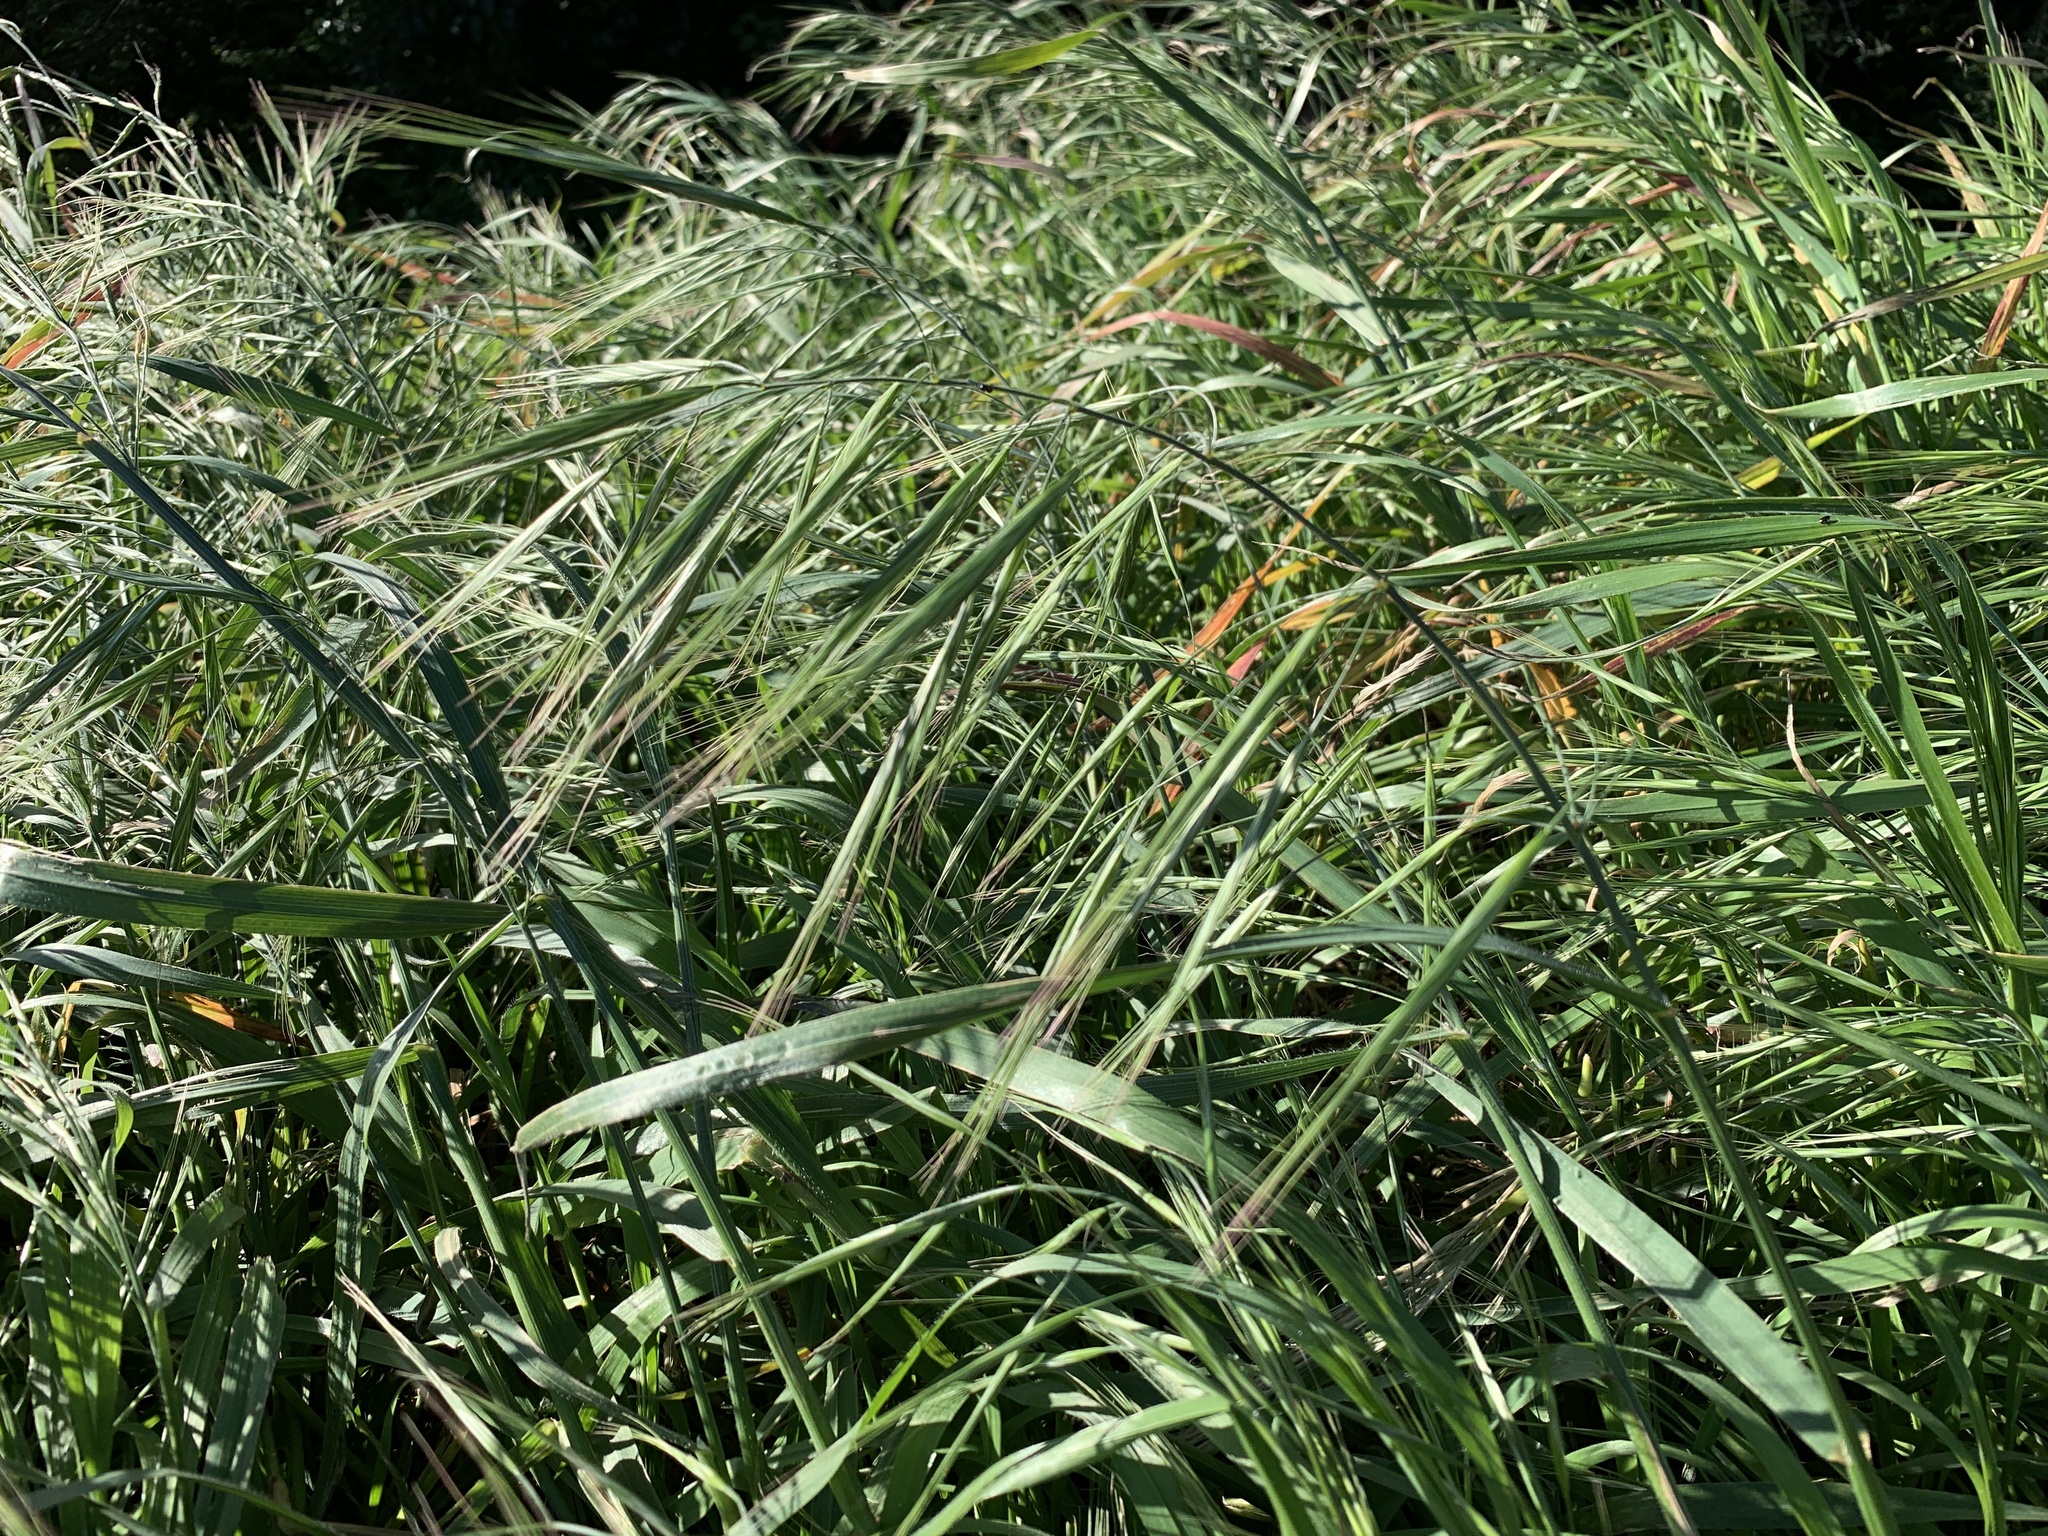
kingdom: Plantae
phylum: Tracheophyta
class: Liliopsida
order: Poales
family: Poaceae
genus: Bromus
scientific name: Bromus diandrus
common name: Ripgut brome
